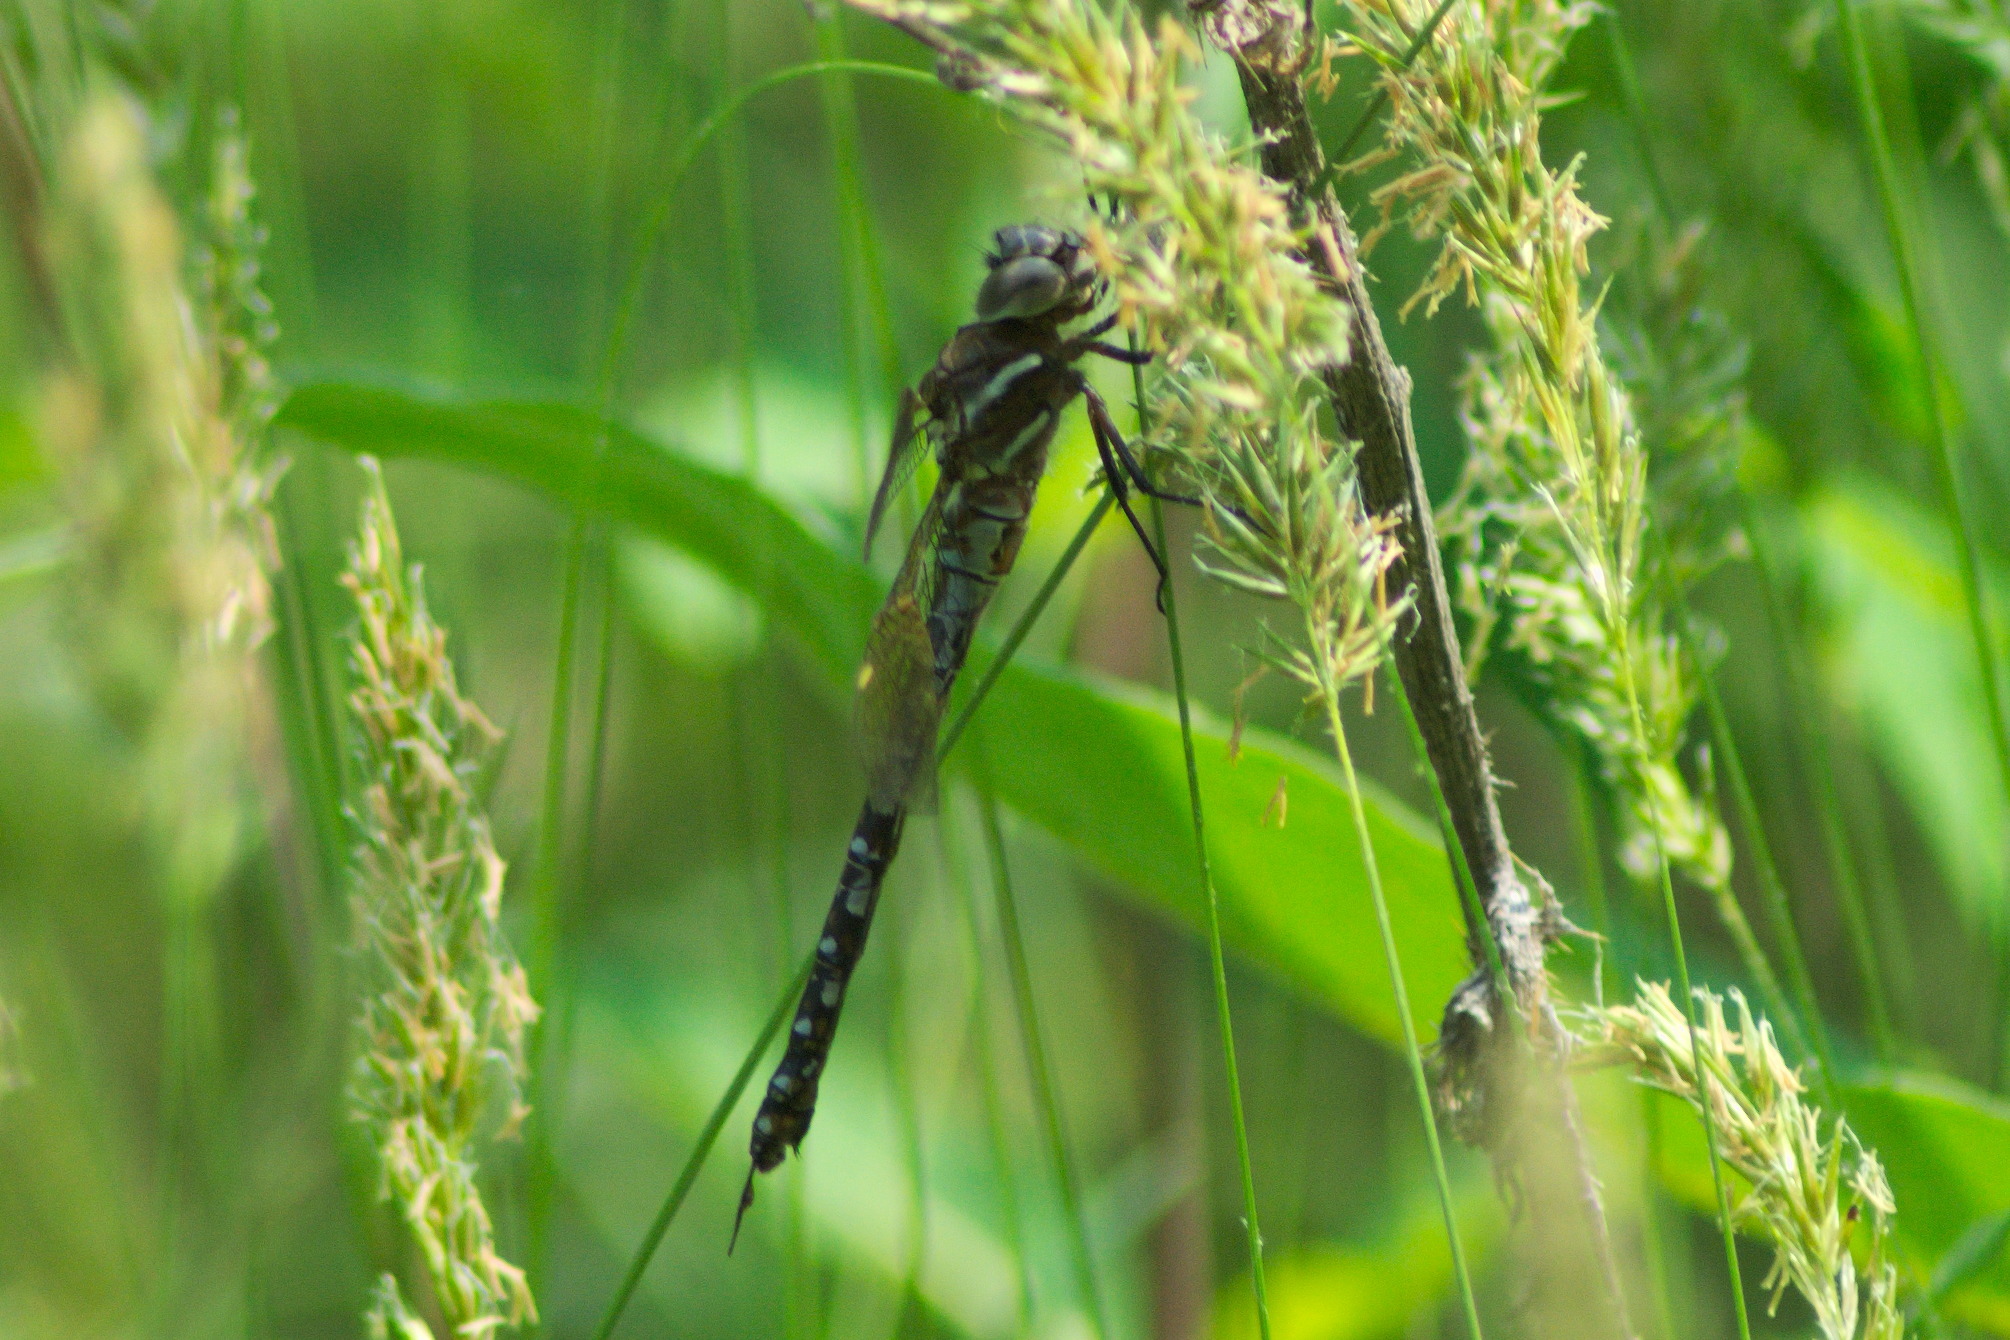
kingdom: Animalia
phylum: Arthropoda
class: Insecta
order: Odonata
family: Aeshnidae
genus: Rhionaeschna
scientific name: Rhionaeschna mutata
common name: Spatterdock darner
